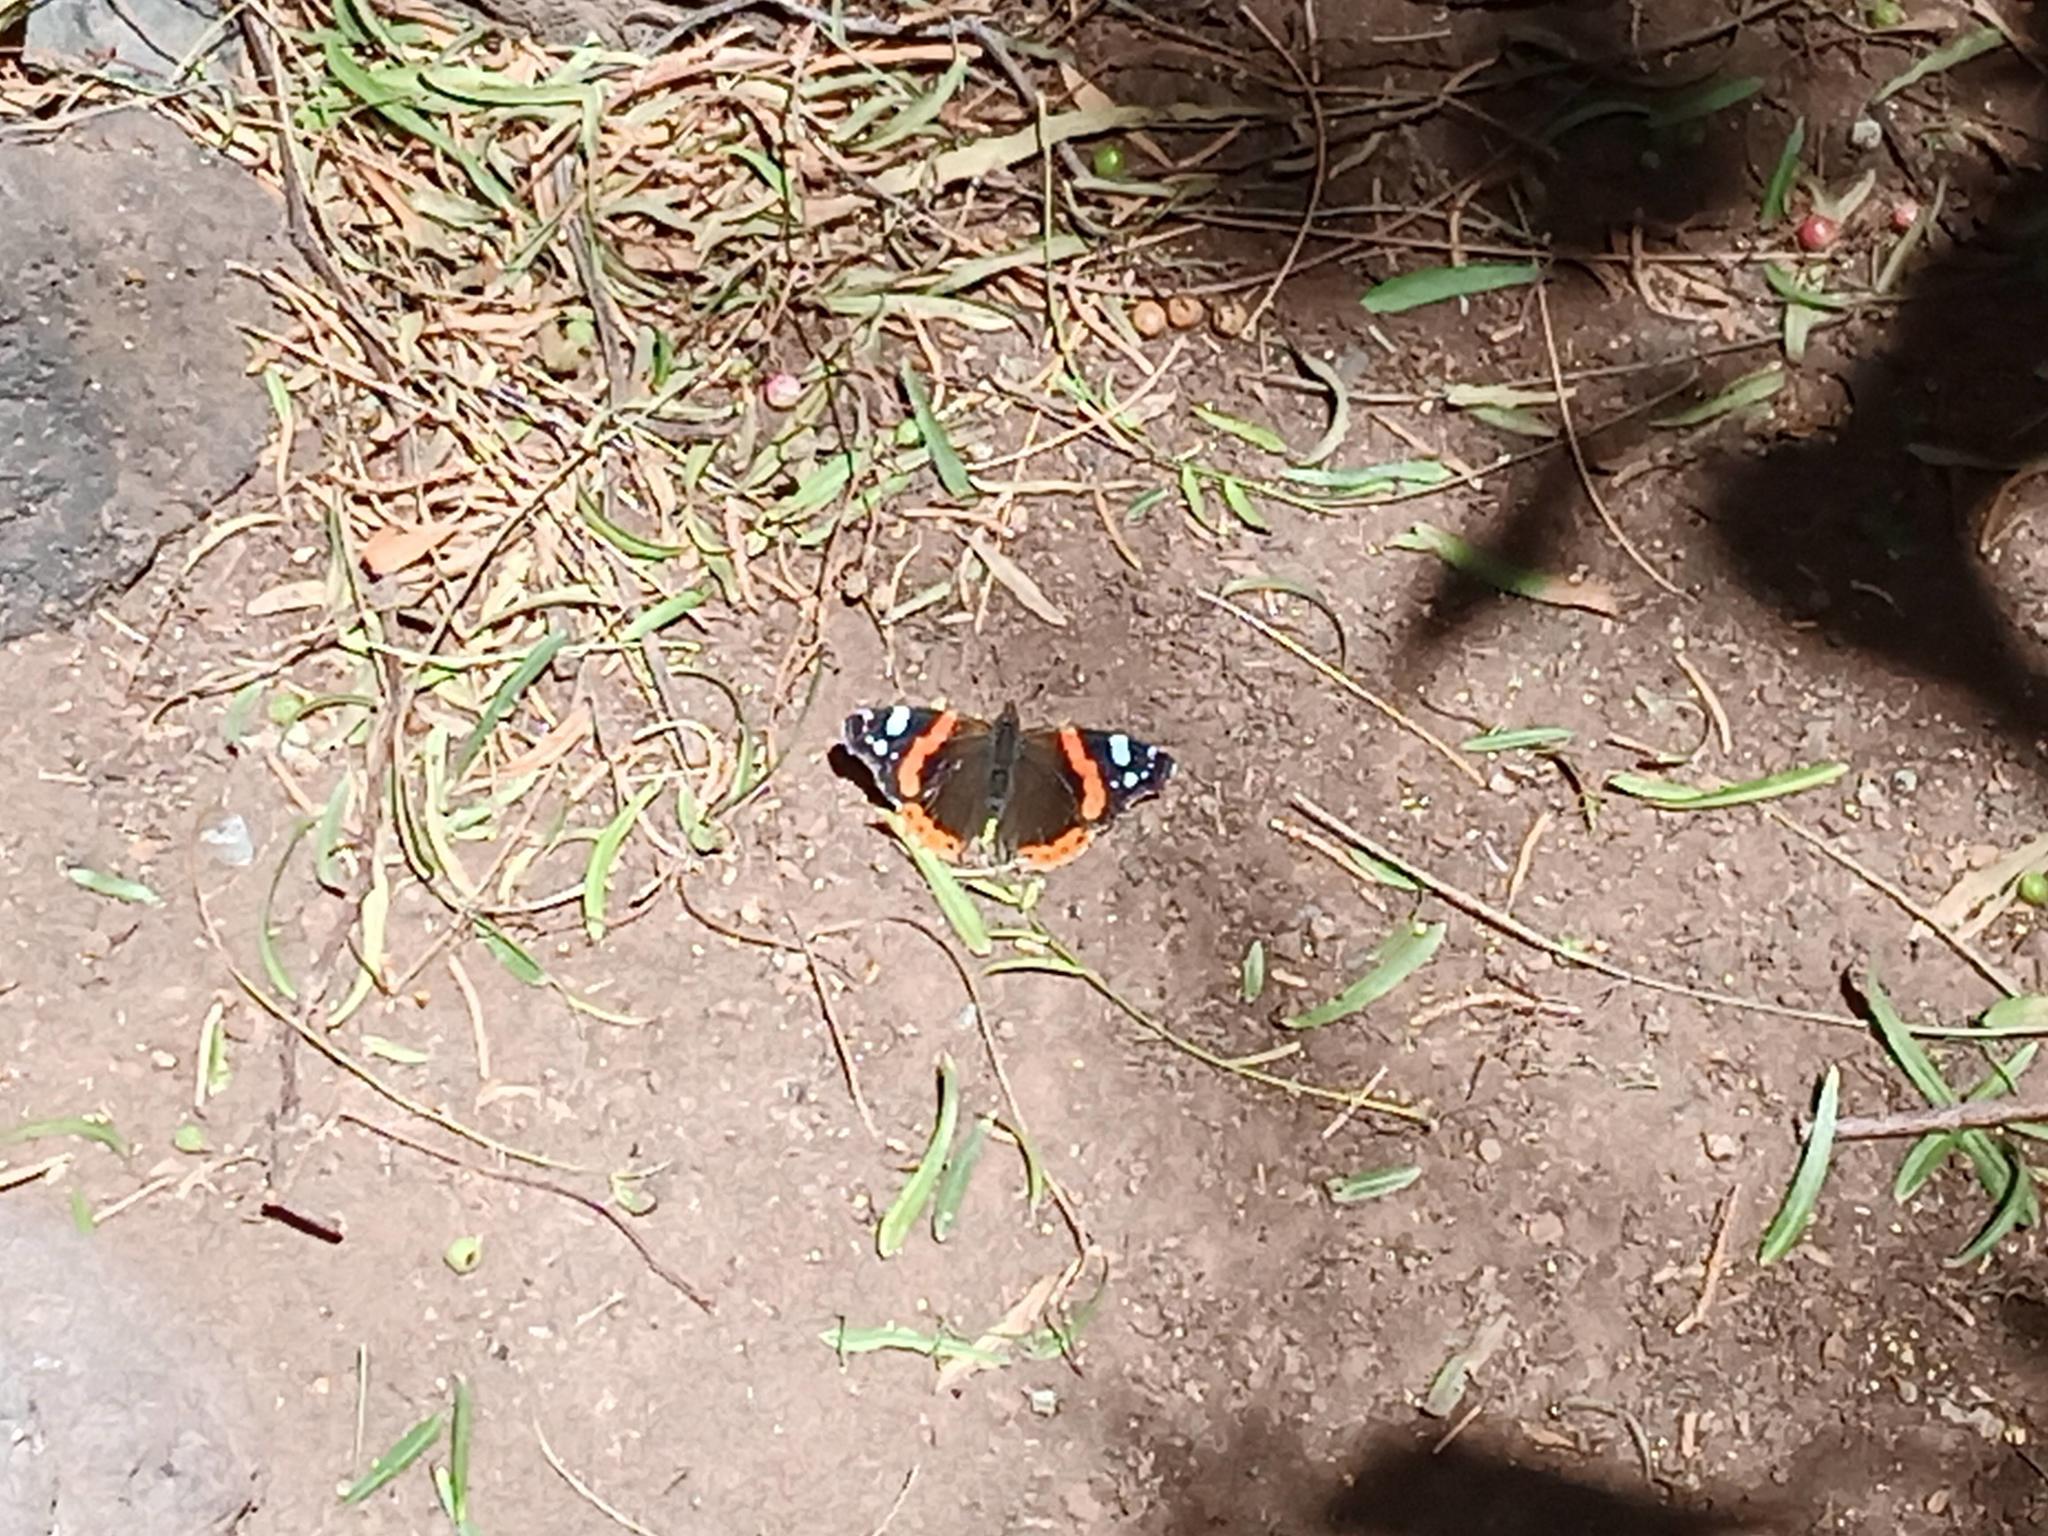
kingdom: Animalia
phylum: Arthropoda
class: Insecta
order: Lepidoptera
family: Nymphalidae
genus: Vanessa
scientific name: Vanessa atalanta
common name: Red admiral
